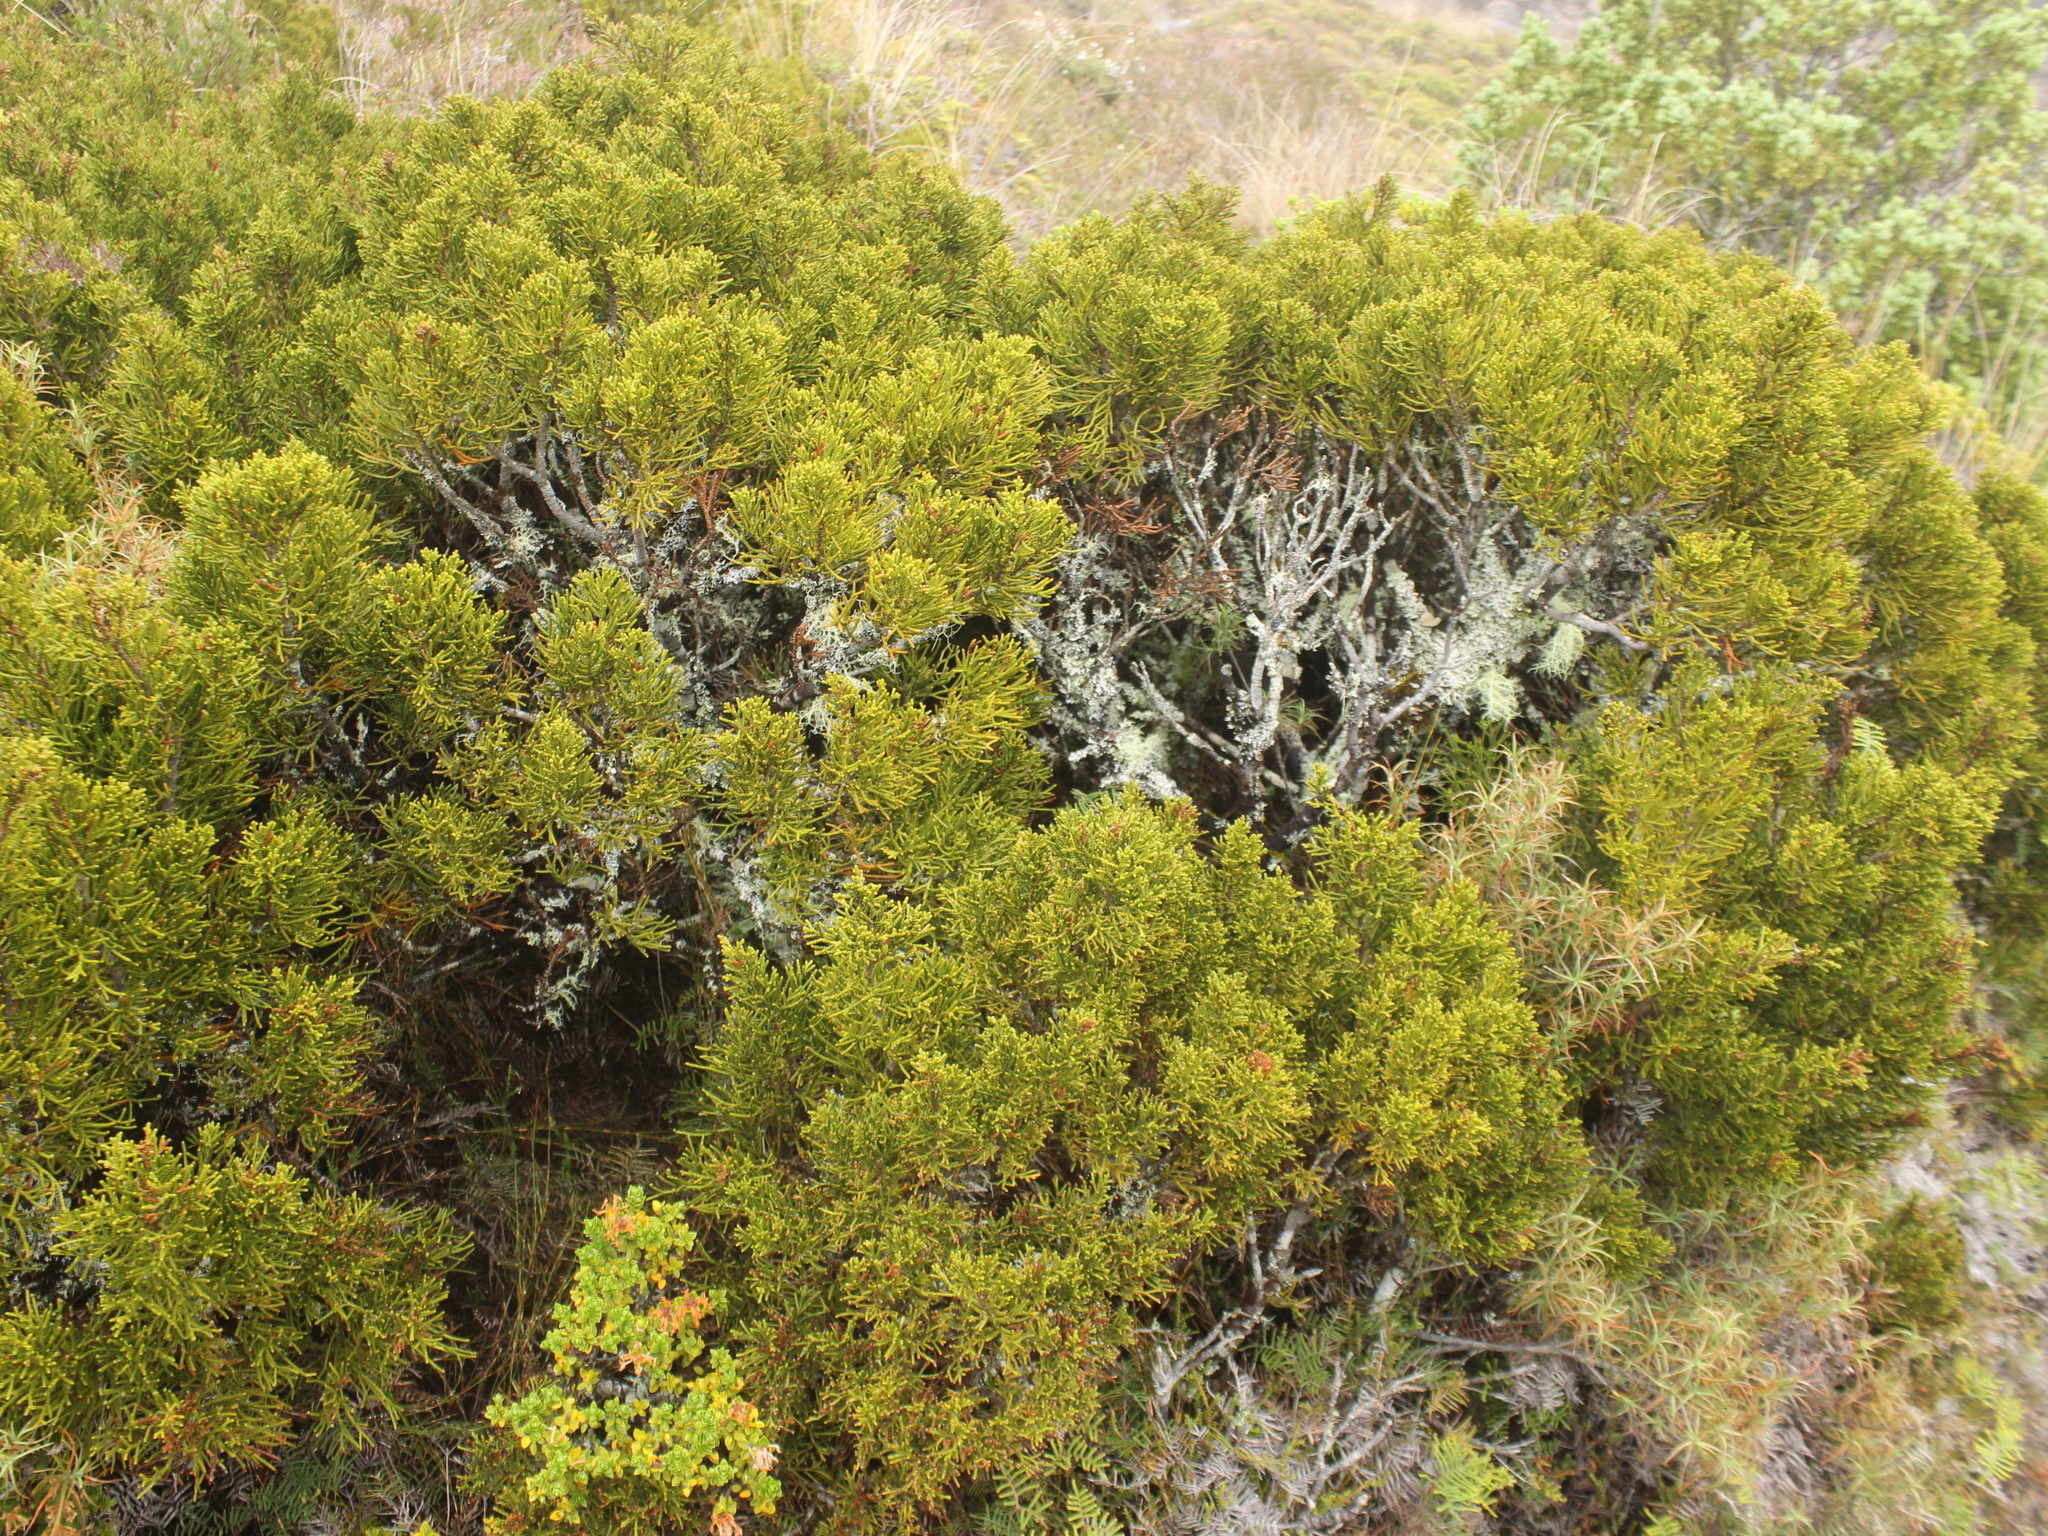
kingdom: Plantae
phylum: Tracheophyta
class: Pinopsida
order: Pinales
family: Podocarpaceae
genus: Halocarpus
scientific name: Halocarpus bidwillii
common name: Bog pine
